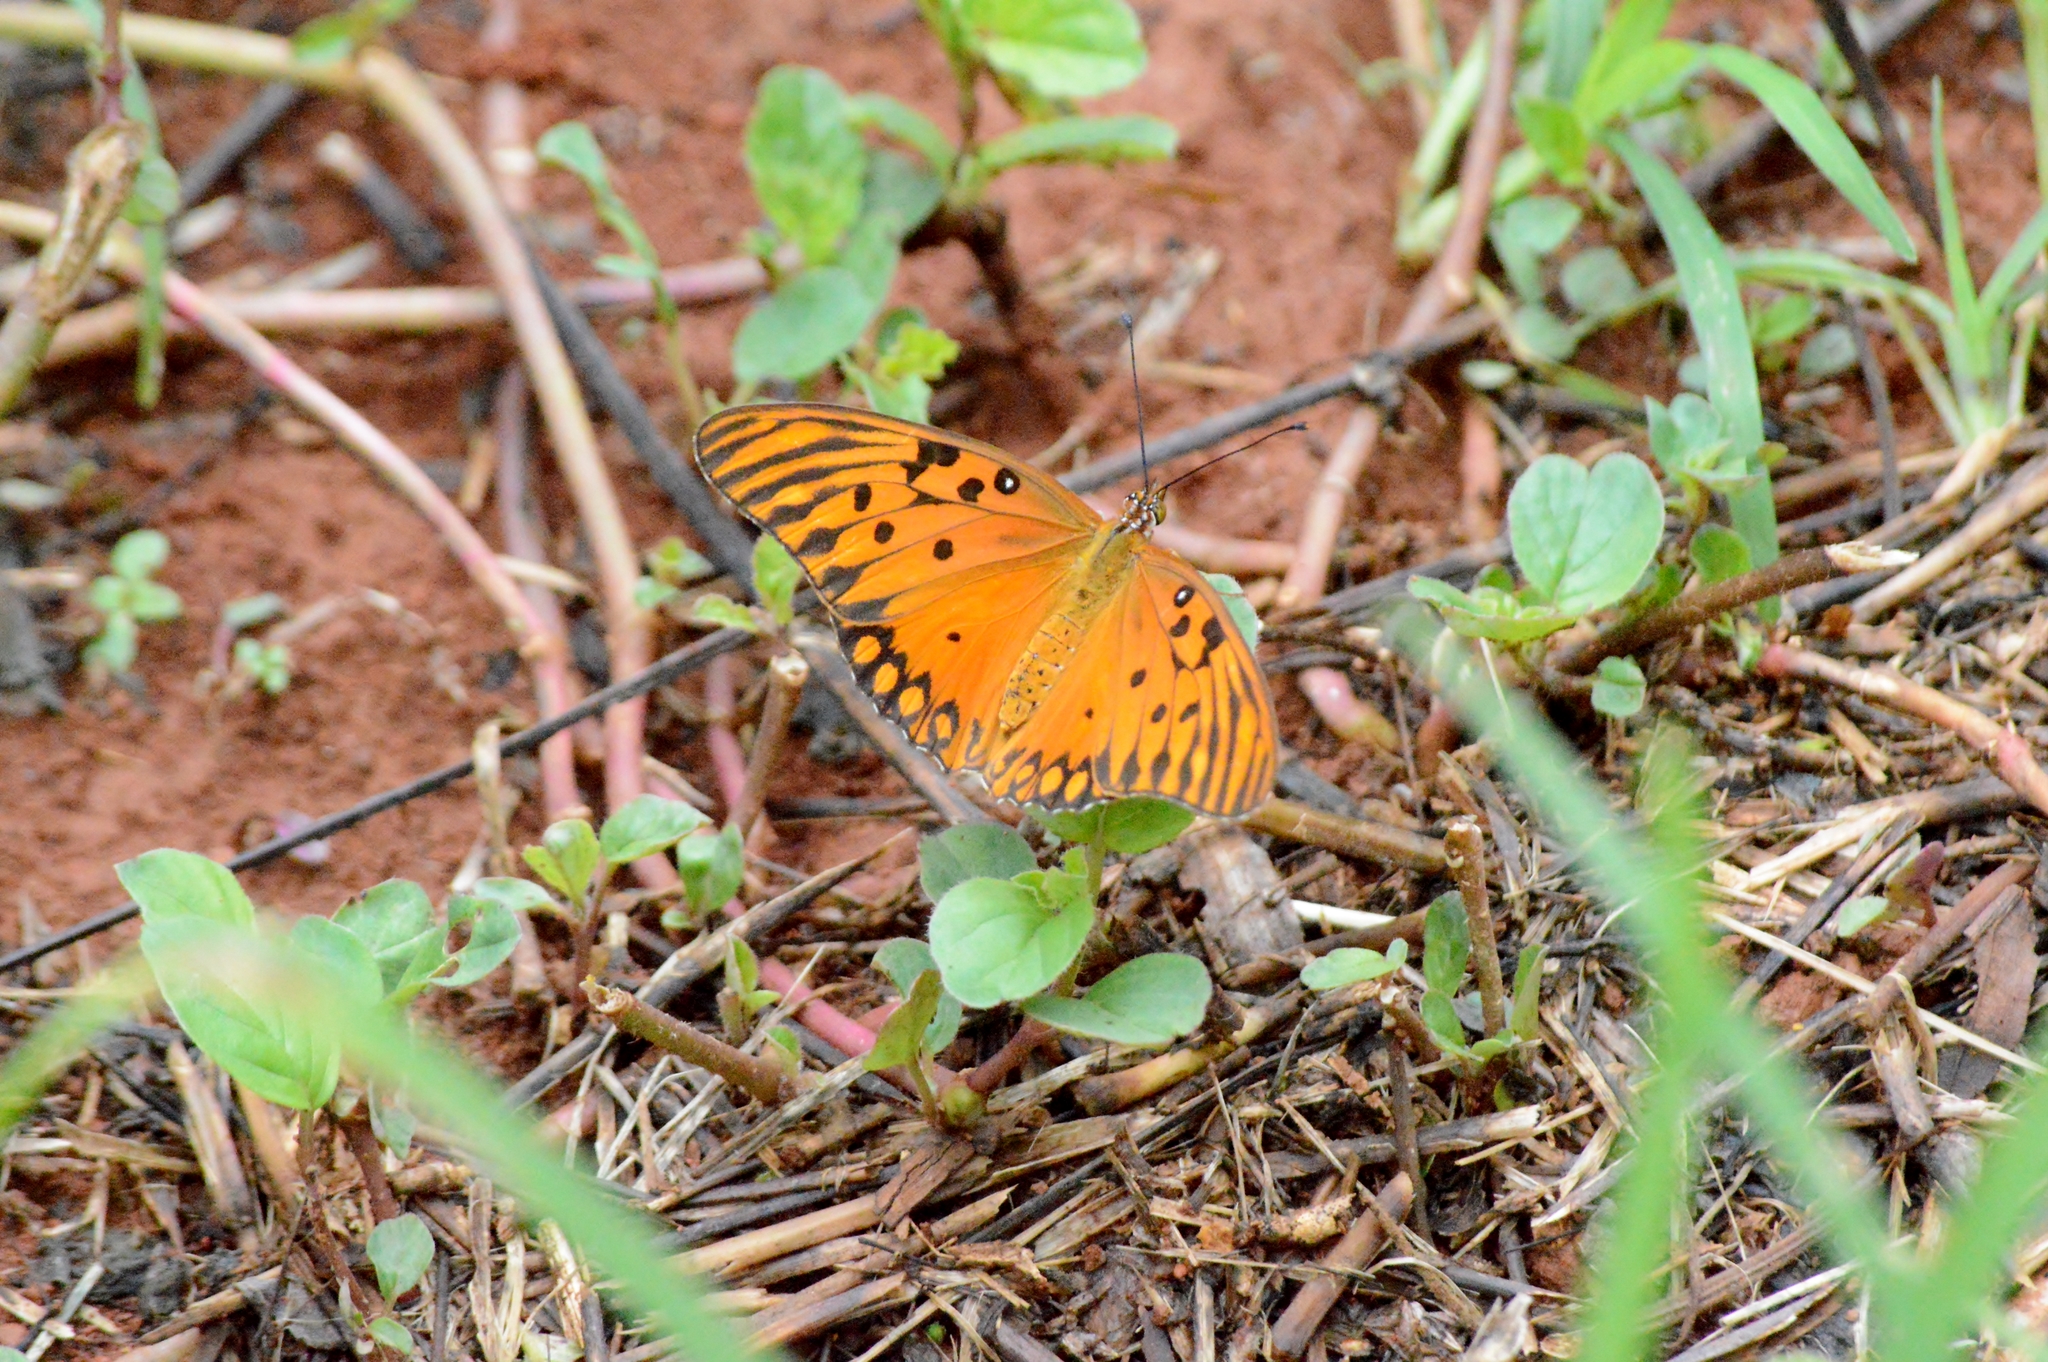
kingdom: Animalia
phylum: Arthropoda
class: Insecta
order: Lepidoptera
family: Nymphalidae
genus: Dione
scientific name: Dione vanillae
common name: Gulf fritillary
